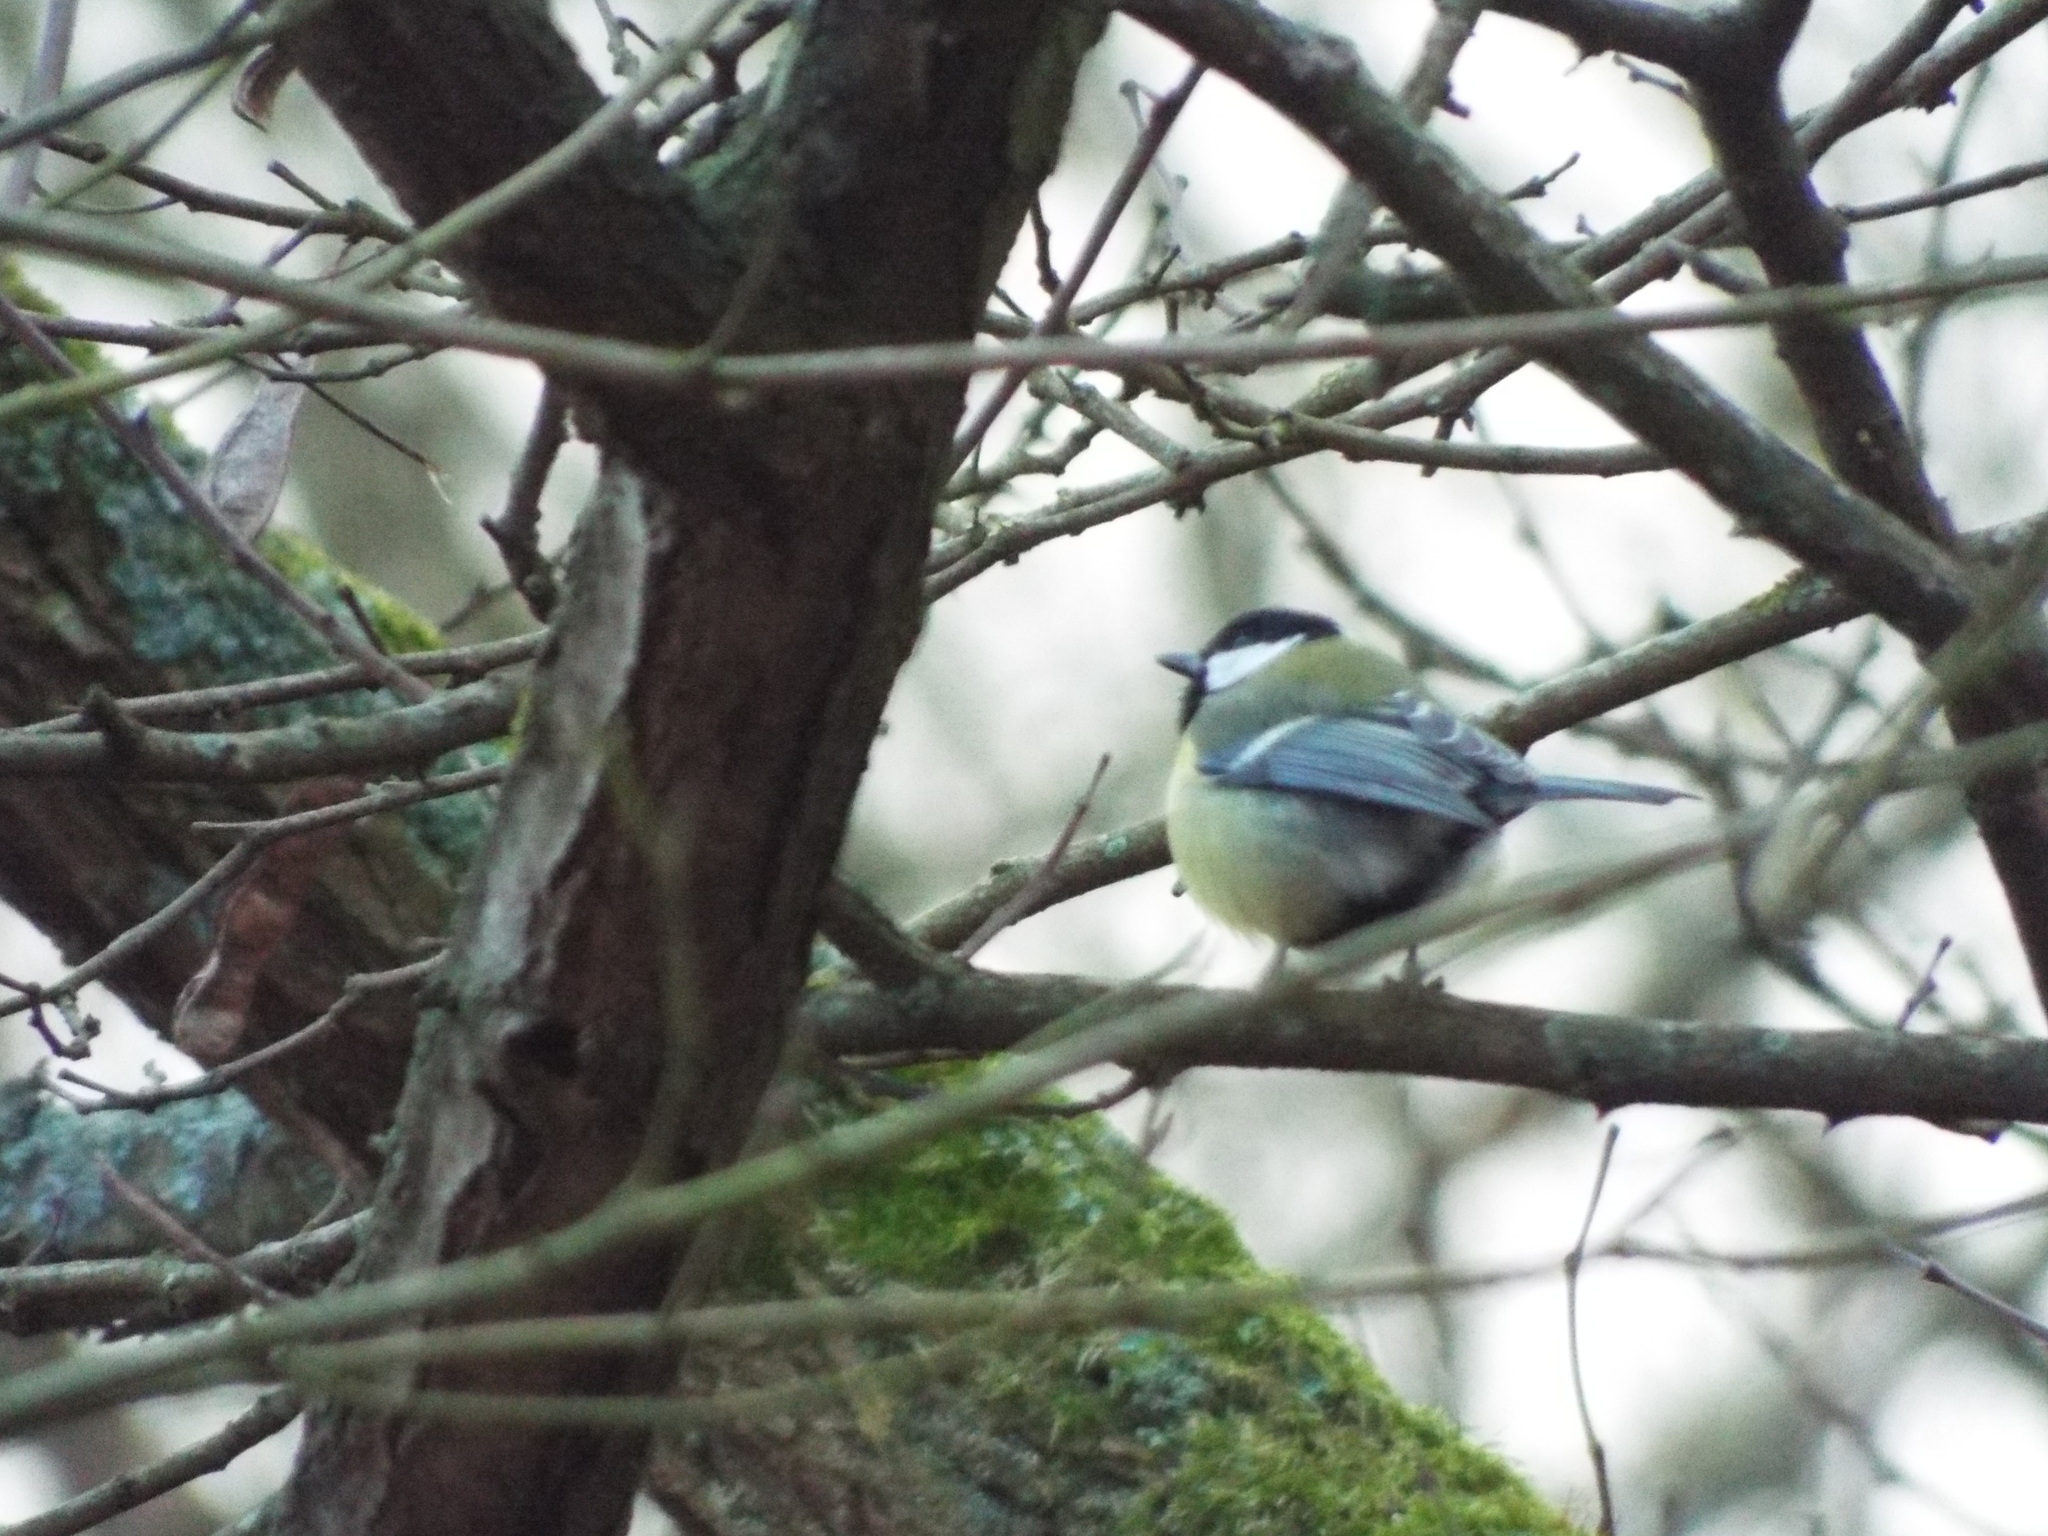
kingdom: Animalia
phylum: Chordata
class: Aves
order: Passeriformes
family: Paridae
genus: Parus
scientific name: Parus major
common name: Great tit
